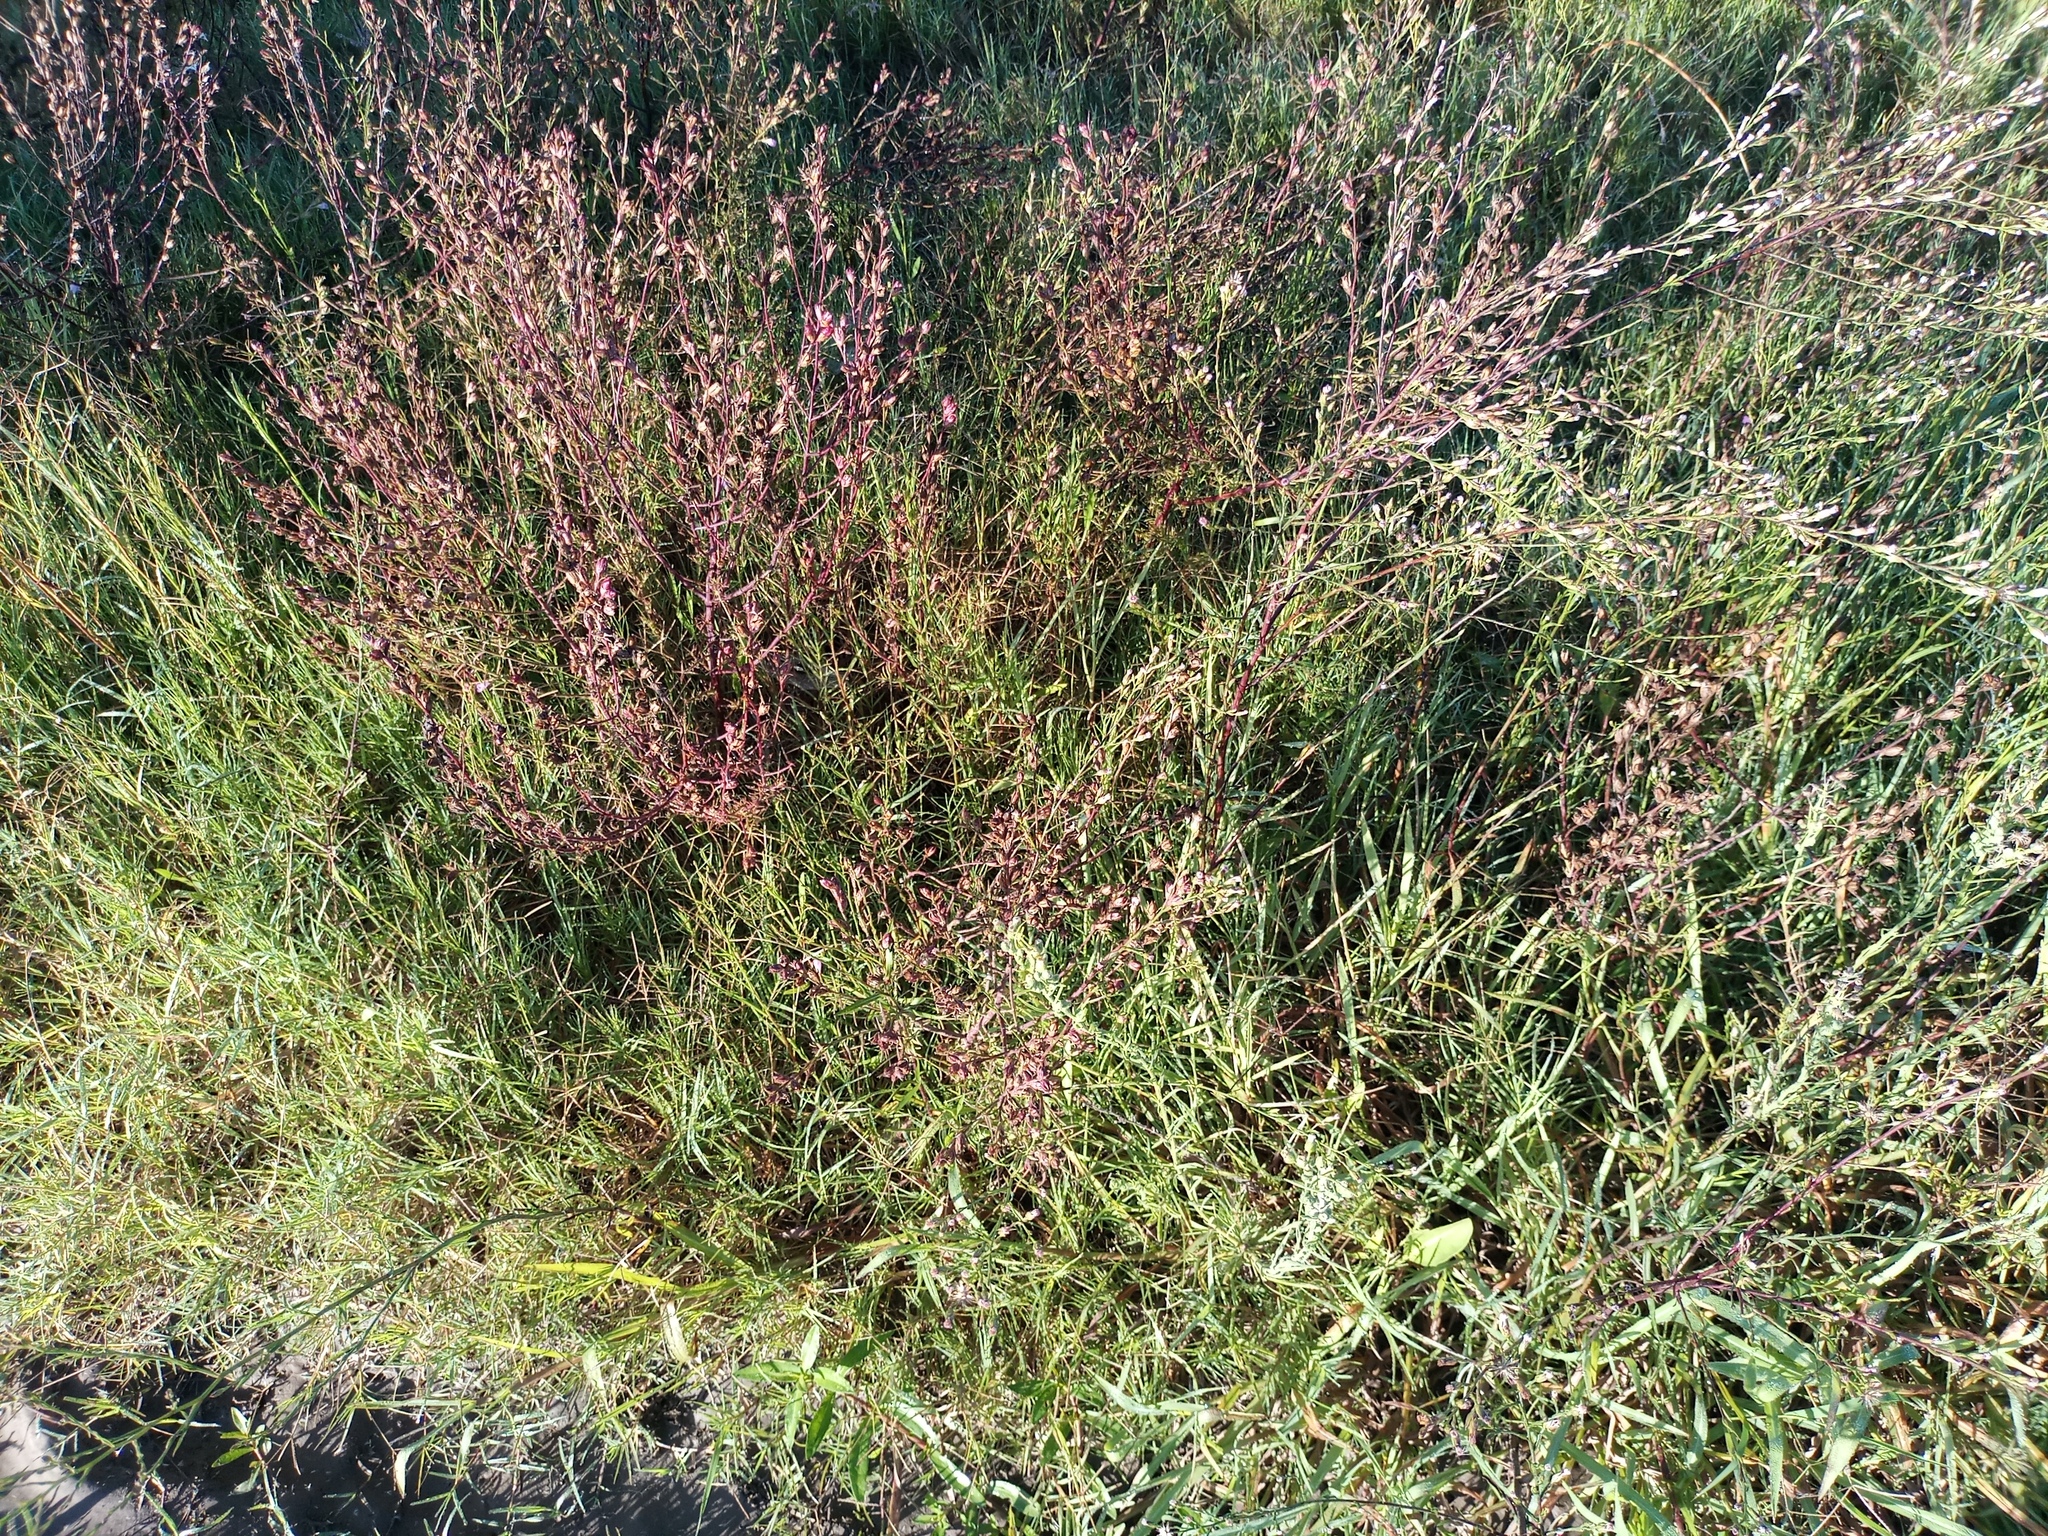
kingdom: Plantae
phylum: Tracheophyta
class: Magnoliopsida
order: Lamiales
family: Orobanchaceae
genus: Agalinis
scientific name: Agalinis communis
